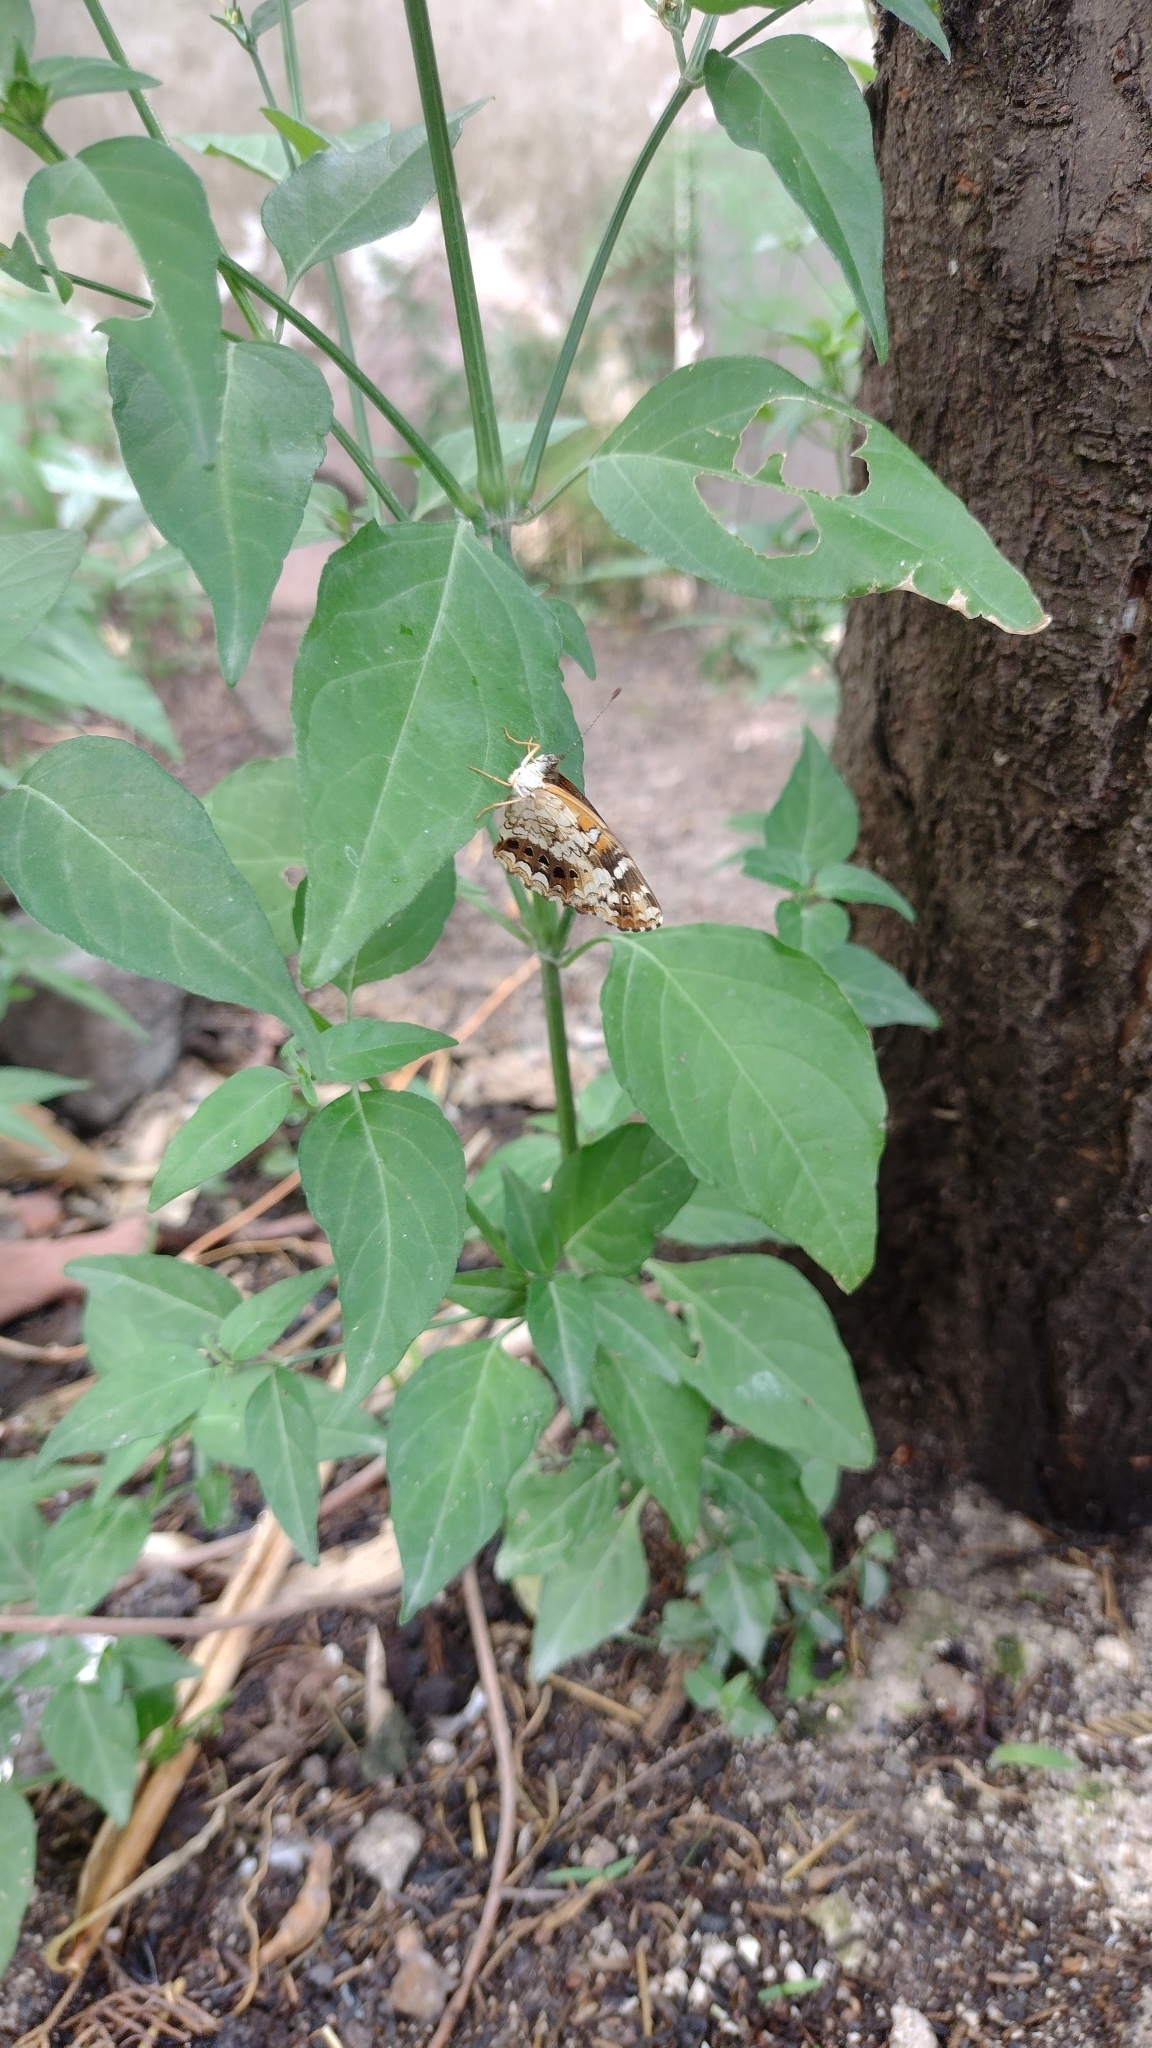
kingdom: Animalia
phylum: Arthropoda
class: Insecta
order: Lepidoptera
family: Nymphalidae
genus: Ortilia
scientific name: Ortilia ithra
